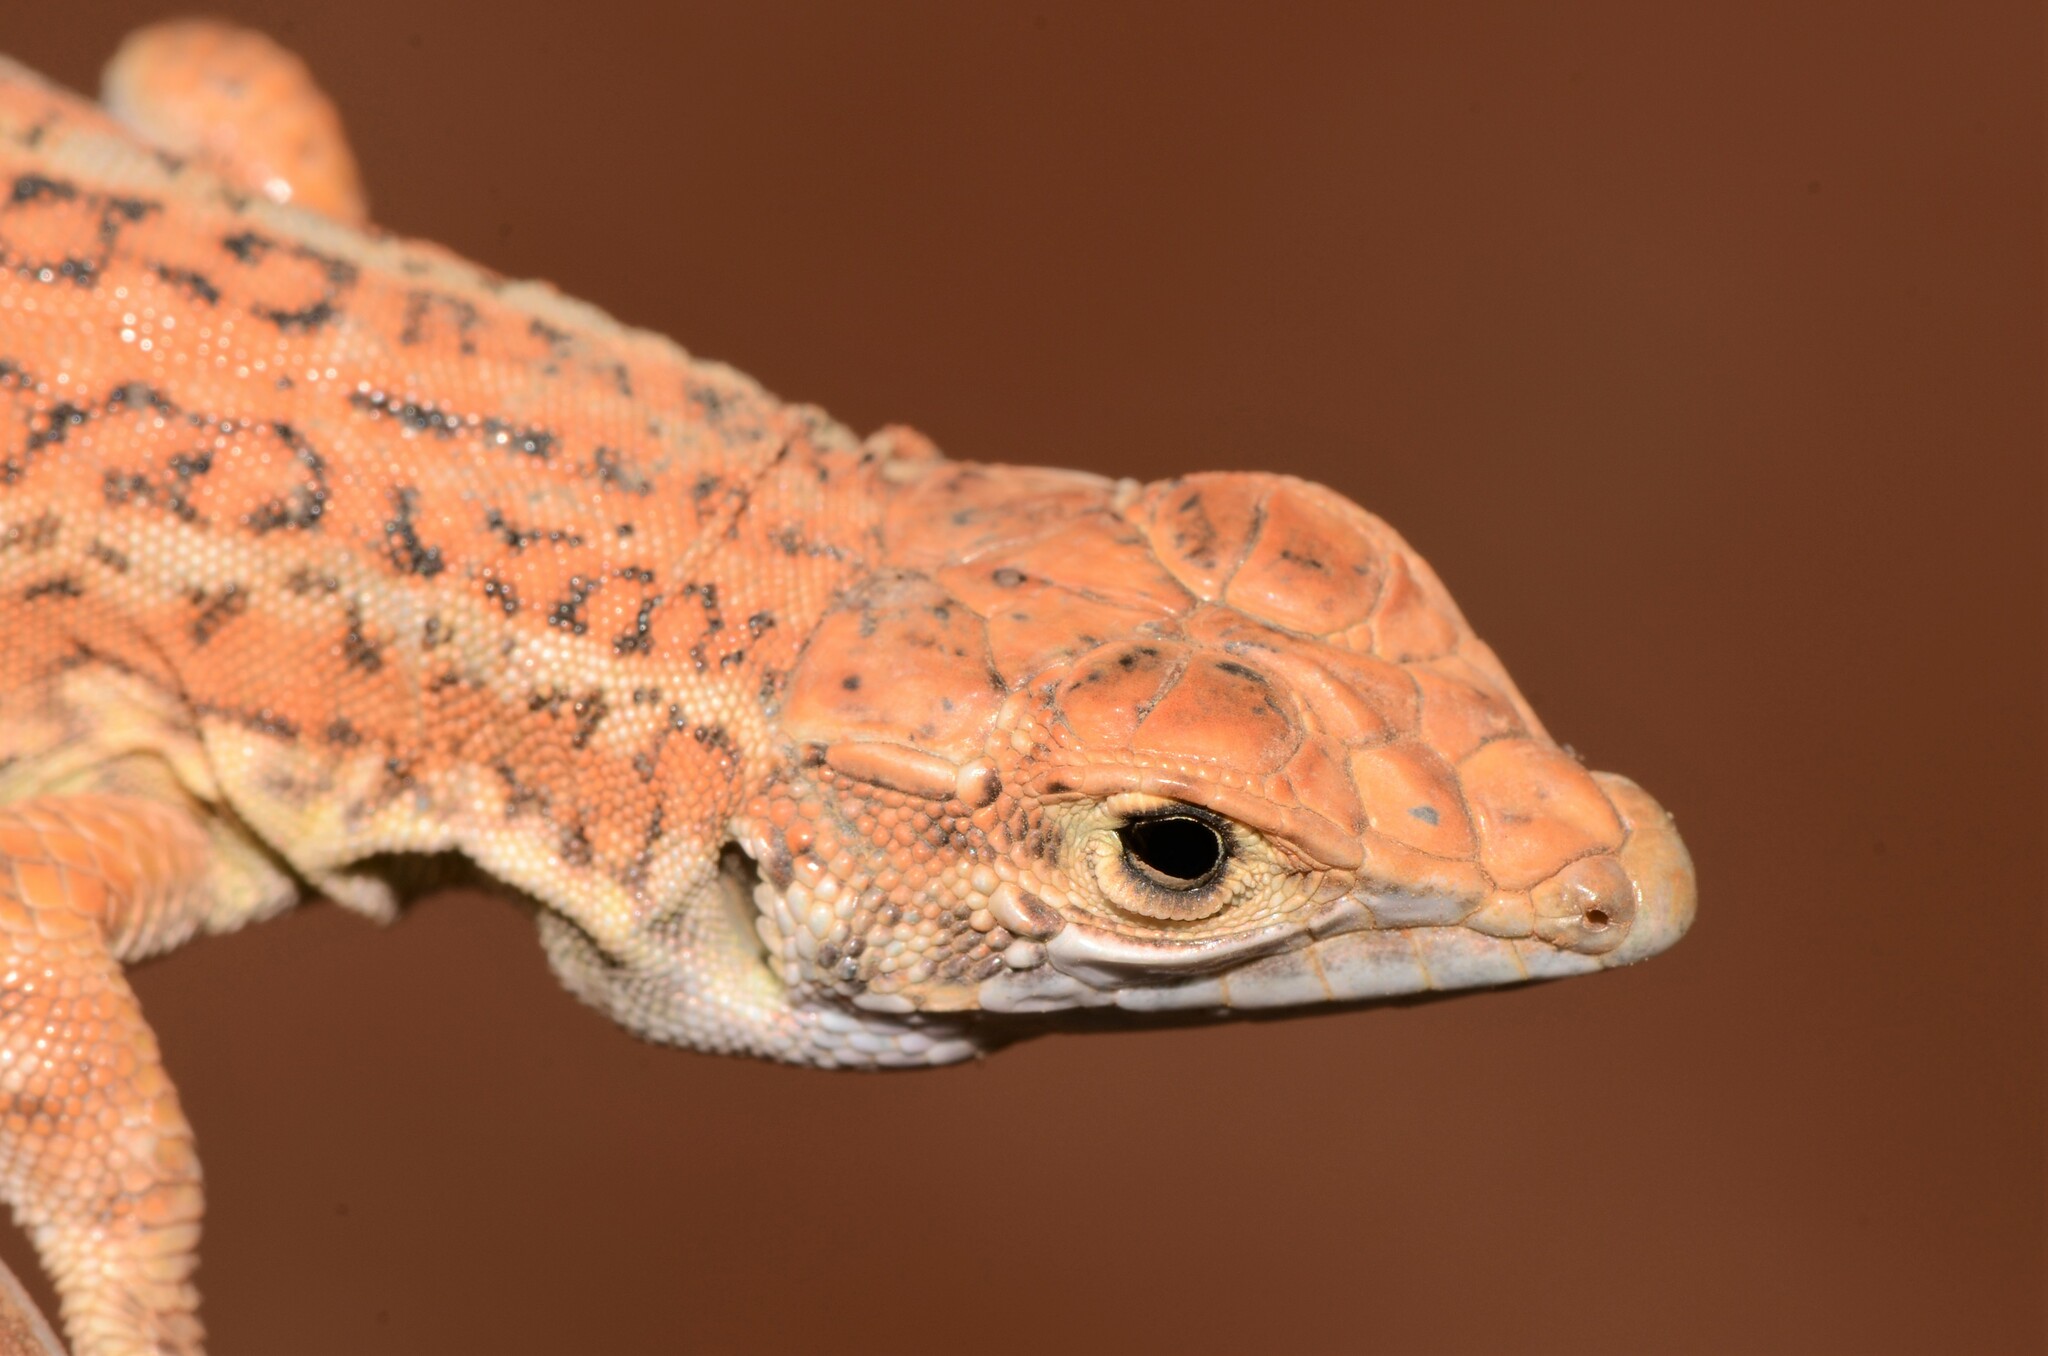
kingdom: Animalia
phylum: Chordata
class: Squamata
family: Lacertidae
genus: Meroles
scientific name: Meroles suborbitalis
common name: Spotted sand lizard
